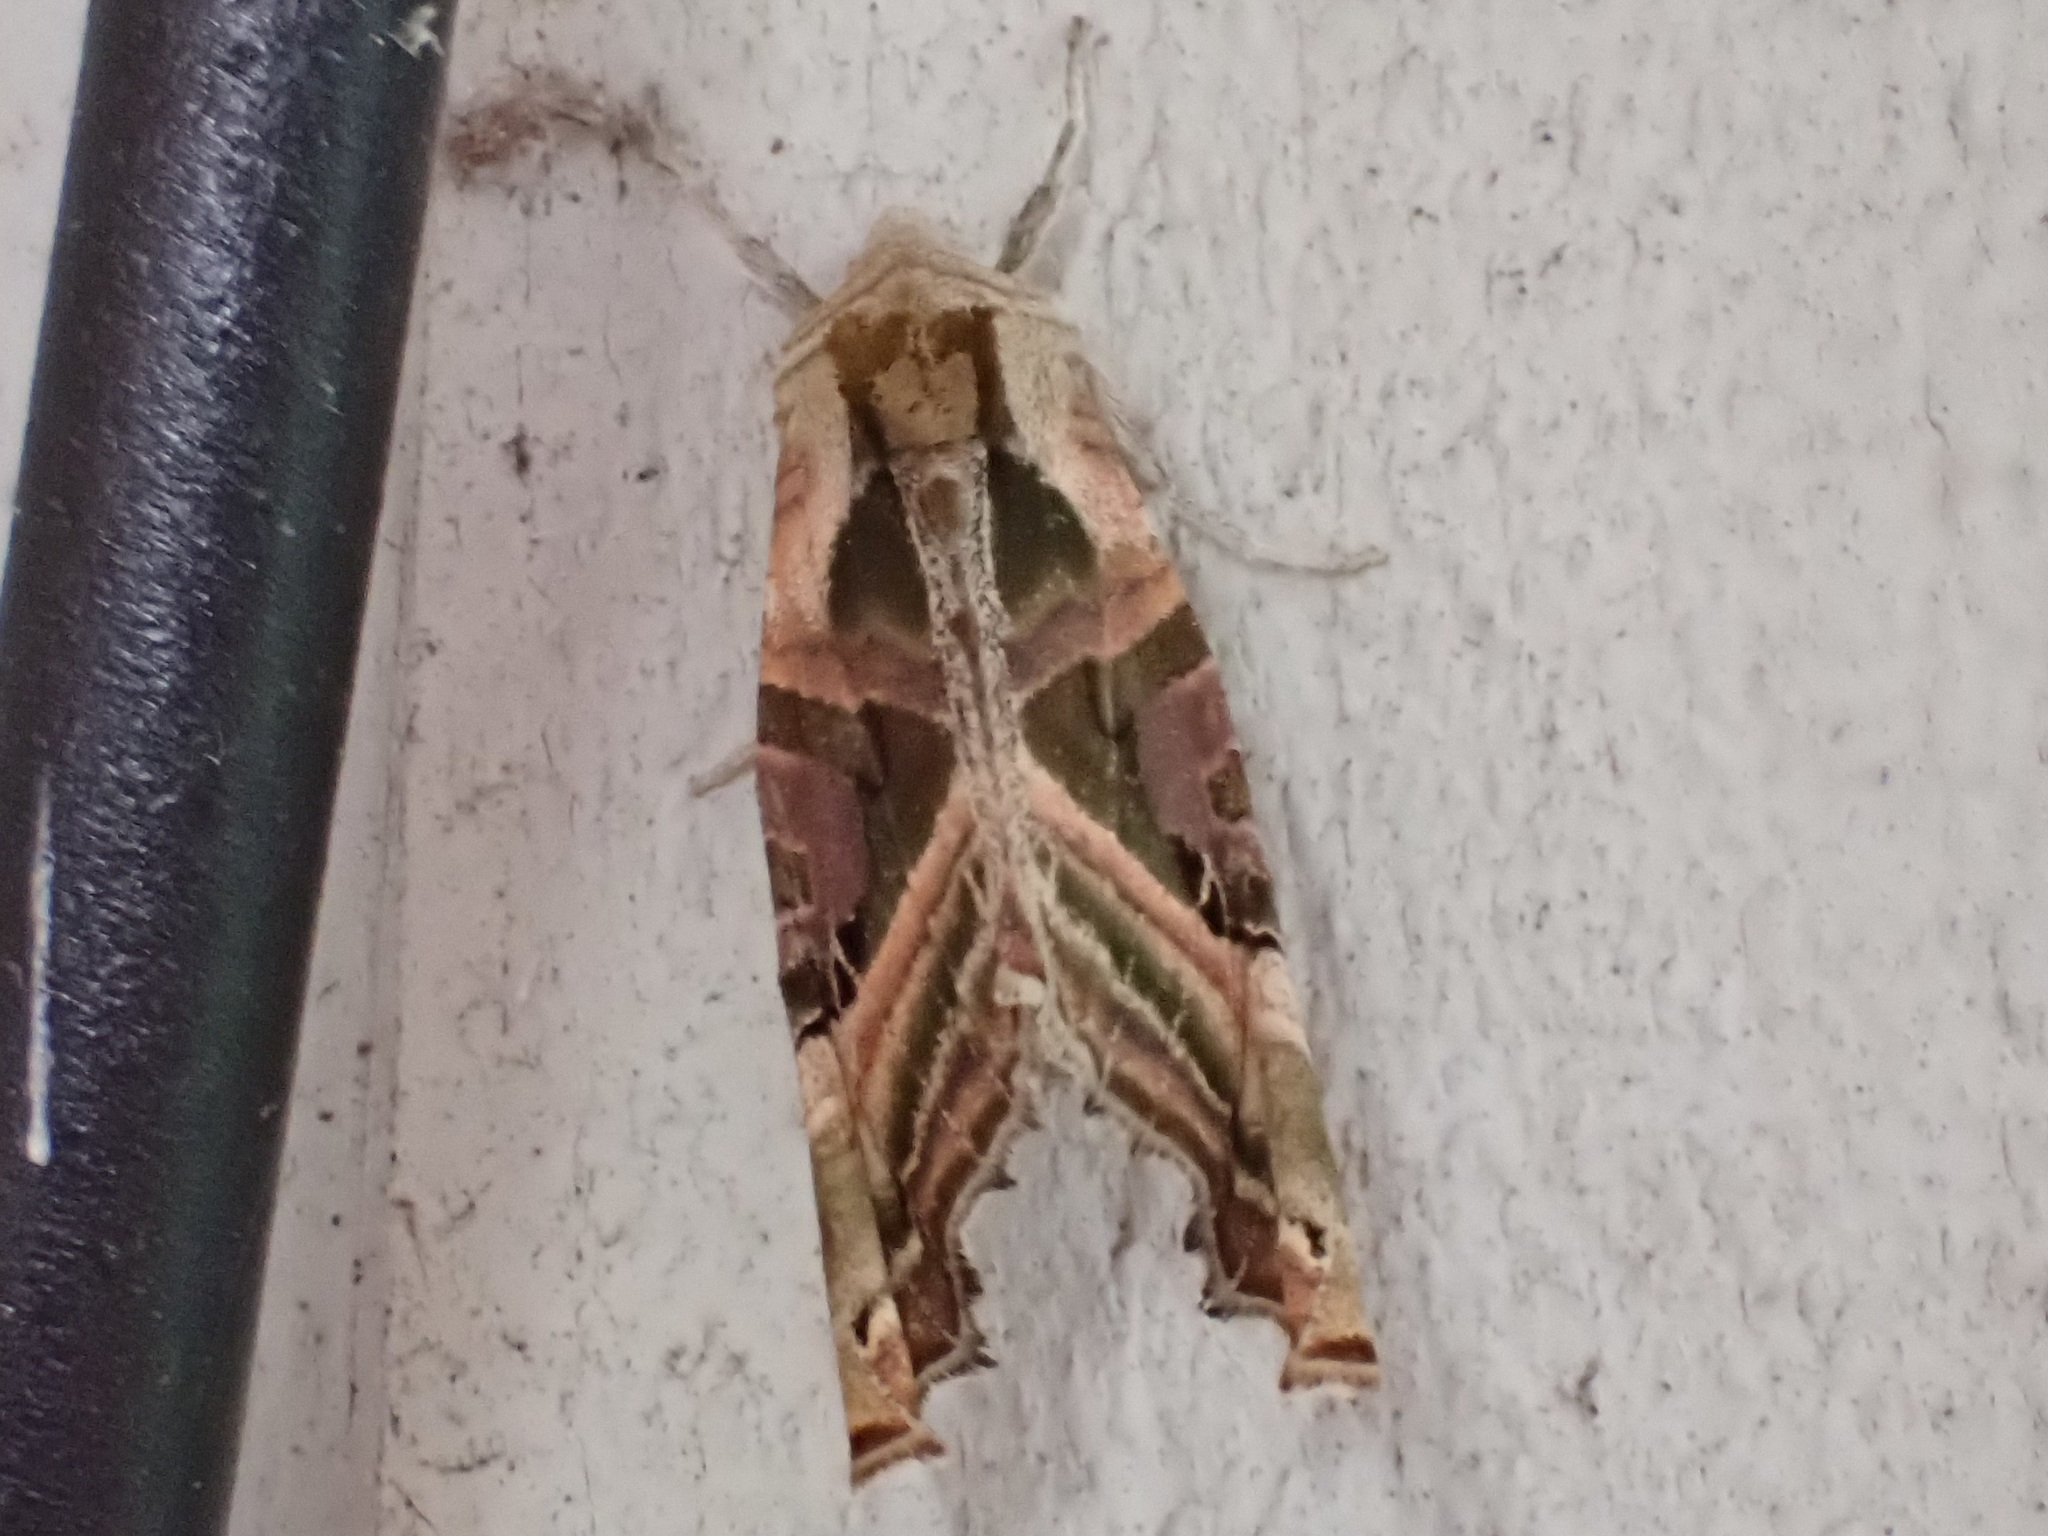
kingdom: Animalia
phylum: Arthropoda
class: Insecta
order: Lepidoptera
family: Noctuidae
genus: Phlogophora
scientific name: Phlogophora iris
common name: Olive angle shades
